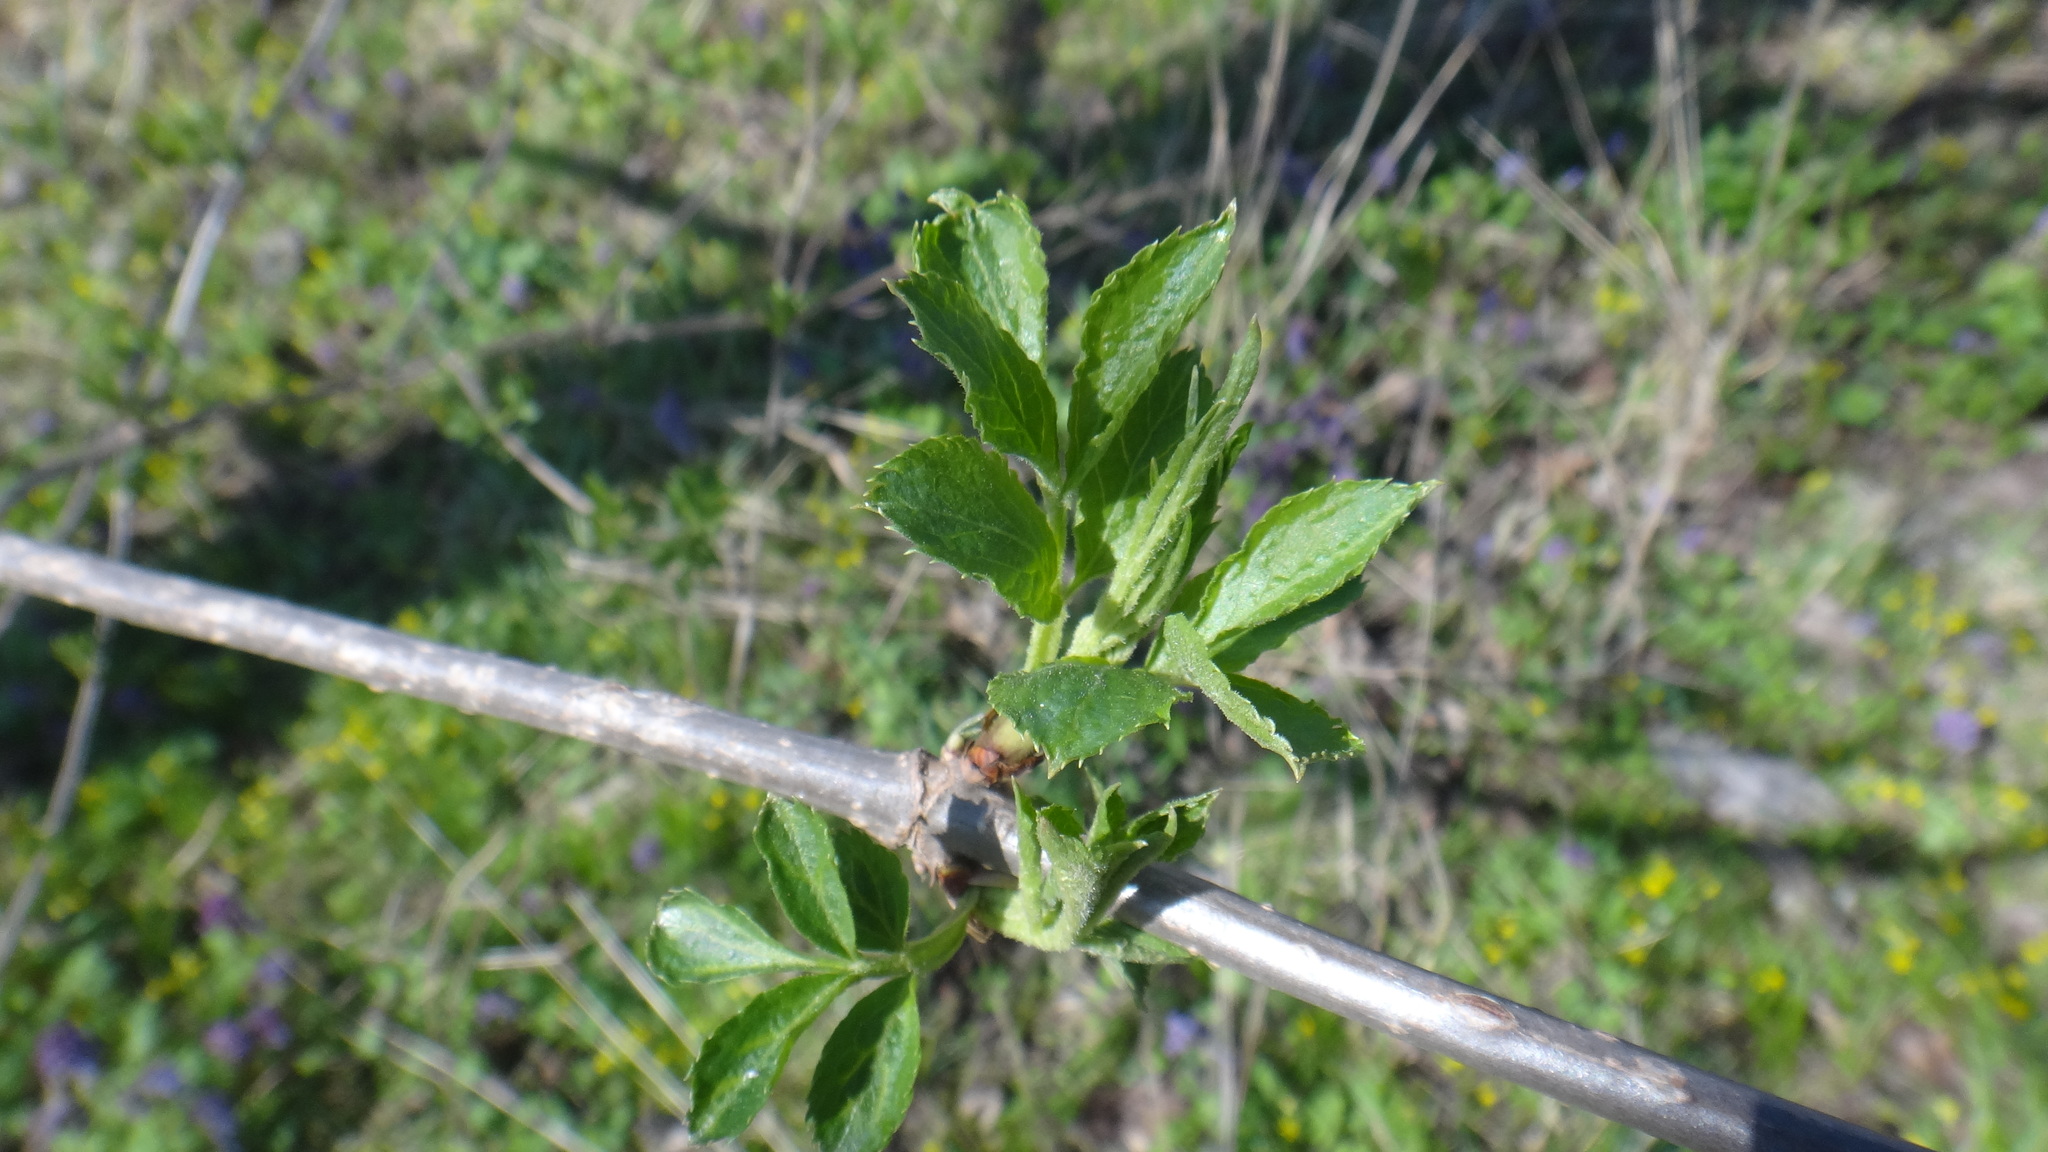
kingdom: Plantae
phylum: Tracheophyta
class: Magnoliopsida
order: Dipsacales
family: Viburnaceae
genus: Sambucus
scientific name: Sambucus nigra
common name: Elder
